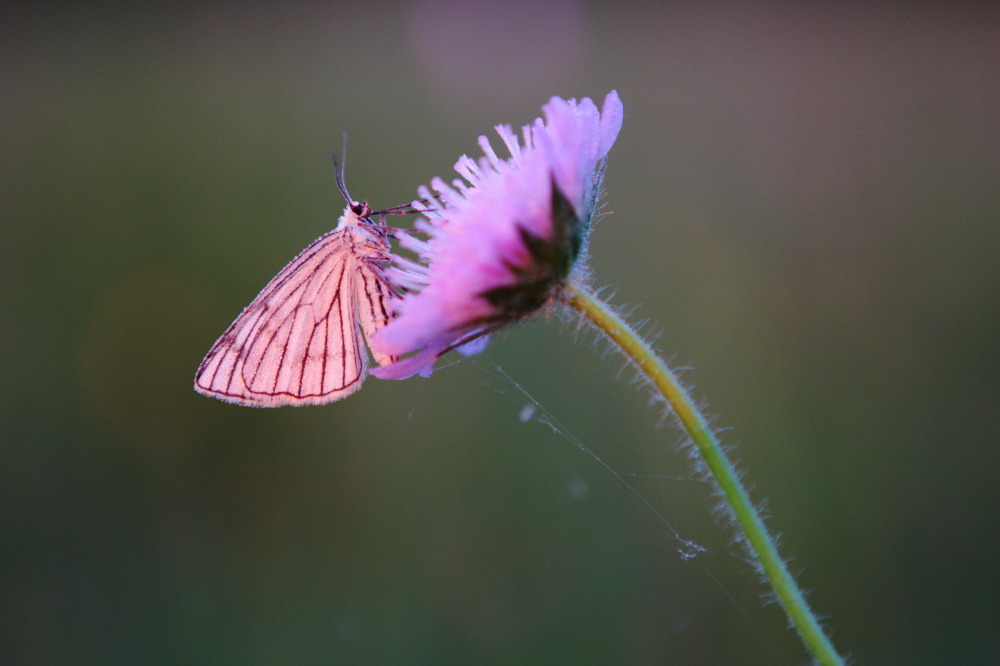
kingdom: Animalia
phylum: Arthropoda
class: Insecta
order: Lepidoptera
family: Geometridae
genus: Siona
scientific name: Siona lineata
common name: Black-veined moth
